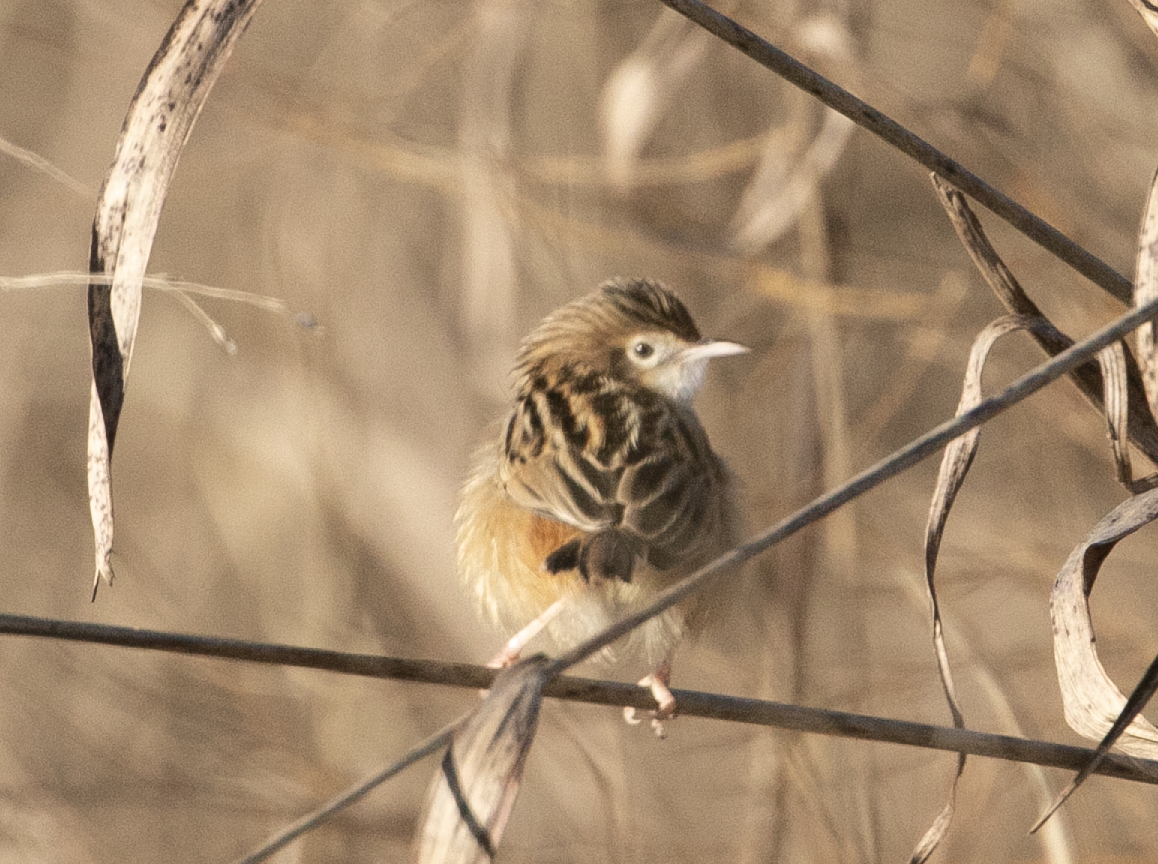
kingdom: Animalia
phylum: Chordata
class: Aves
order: Passeriformes
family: Cisticolidae
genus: Cisticola
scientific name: Cisticola juncidis
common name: Zitting cisticola
